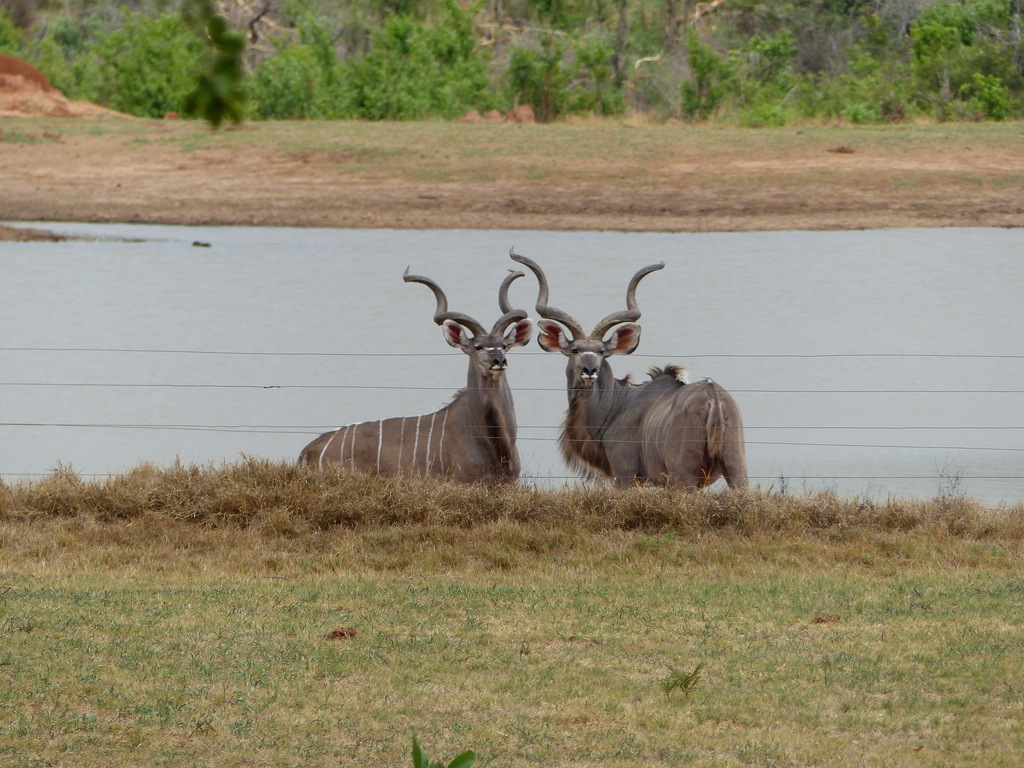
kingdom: Animalia
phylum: Chordata
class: Mammalia
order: Artiodactyla
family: Bovidae
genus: Tragelaphus
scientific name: Tragelaphus strepsiceros
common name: Greater kudu
